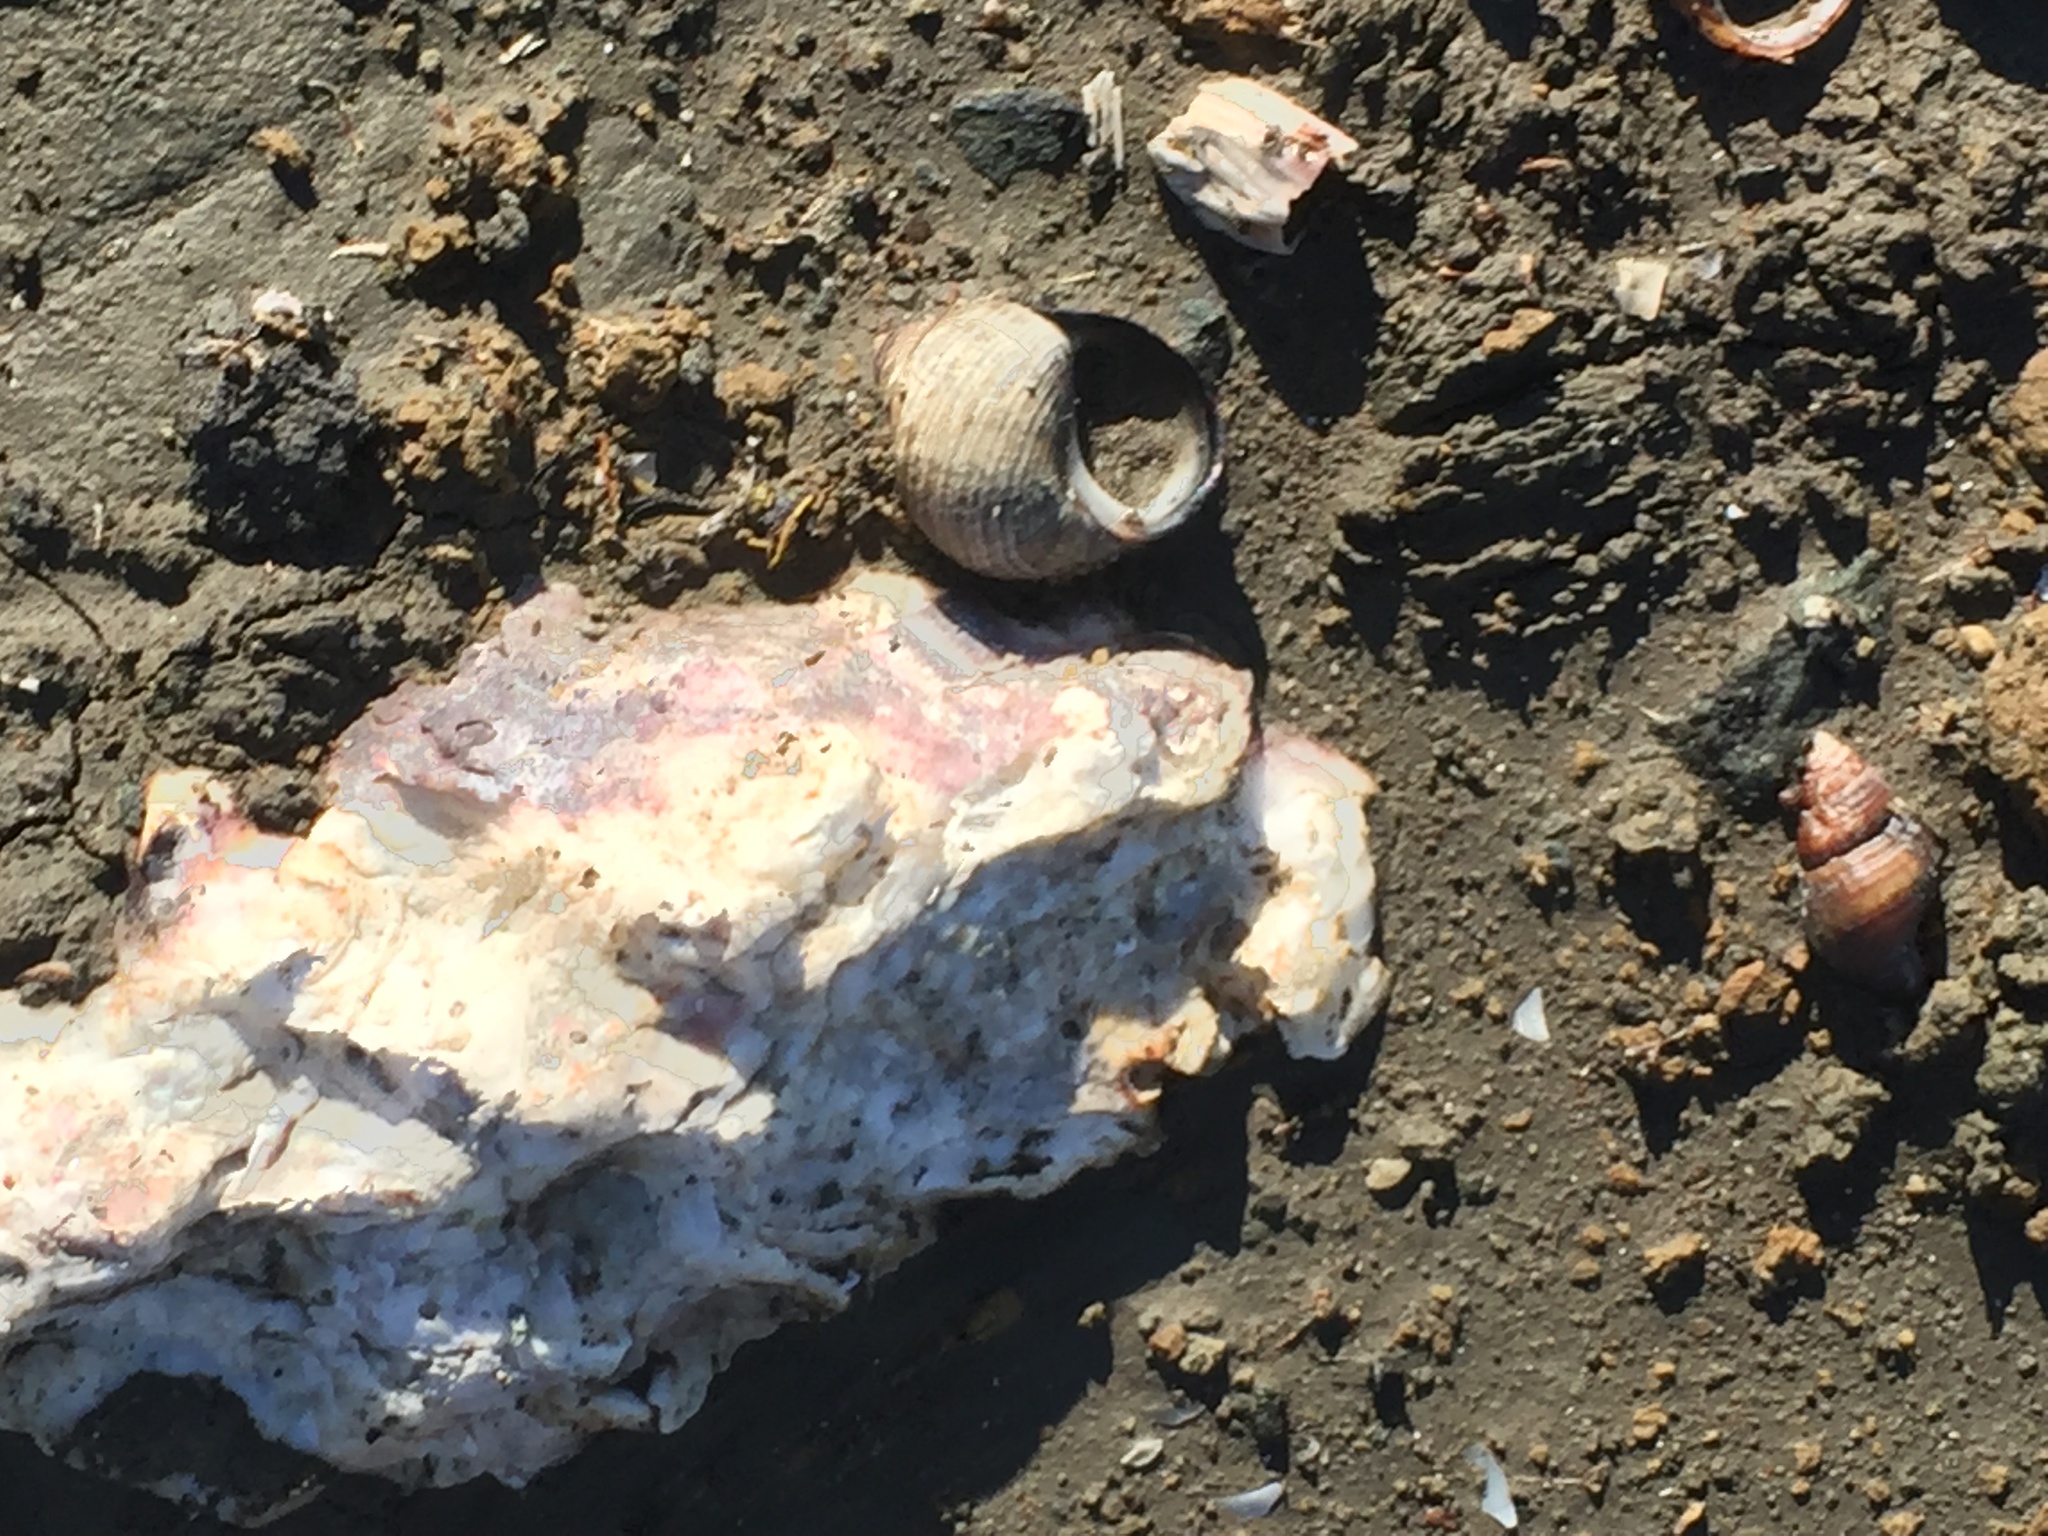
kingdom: Animalia
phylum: Mollusca
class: Gastropoda
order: Neogastropoda
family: Nassariidae
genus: Ilyanassa
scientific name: Ilyanassa obsoleta
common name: Eastern mudsnail
